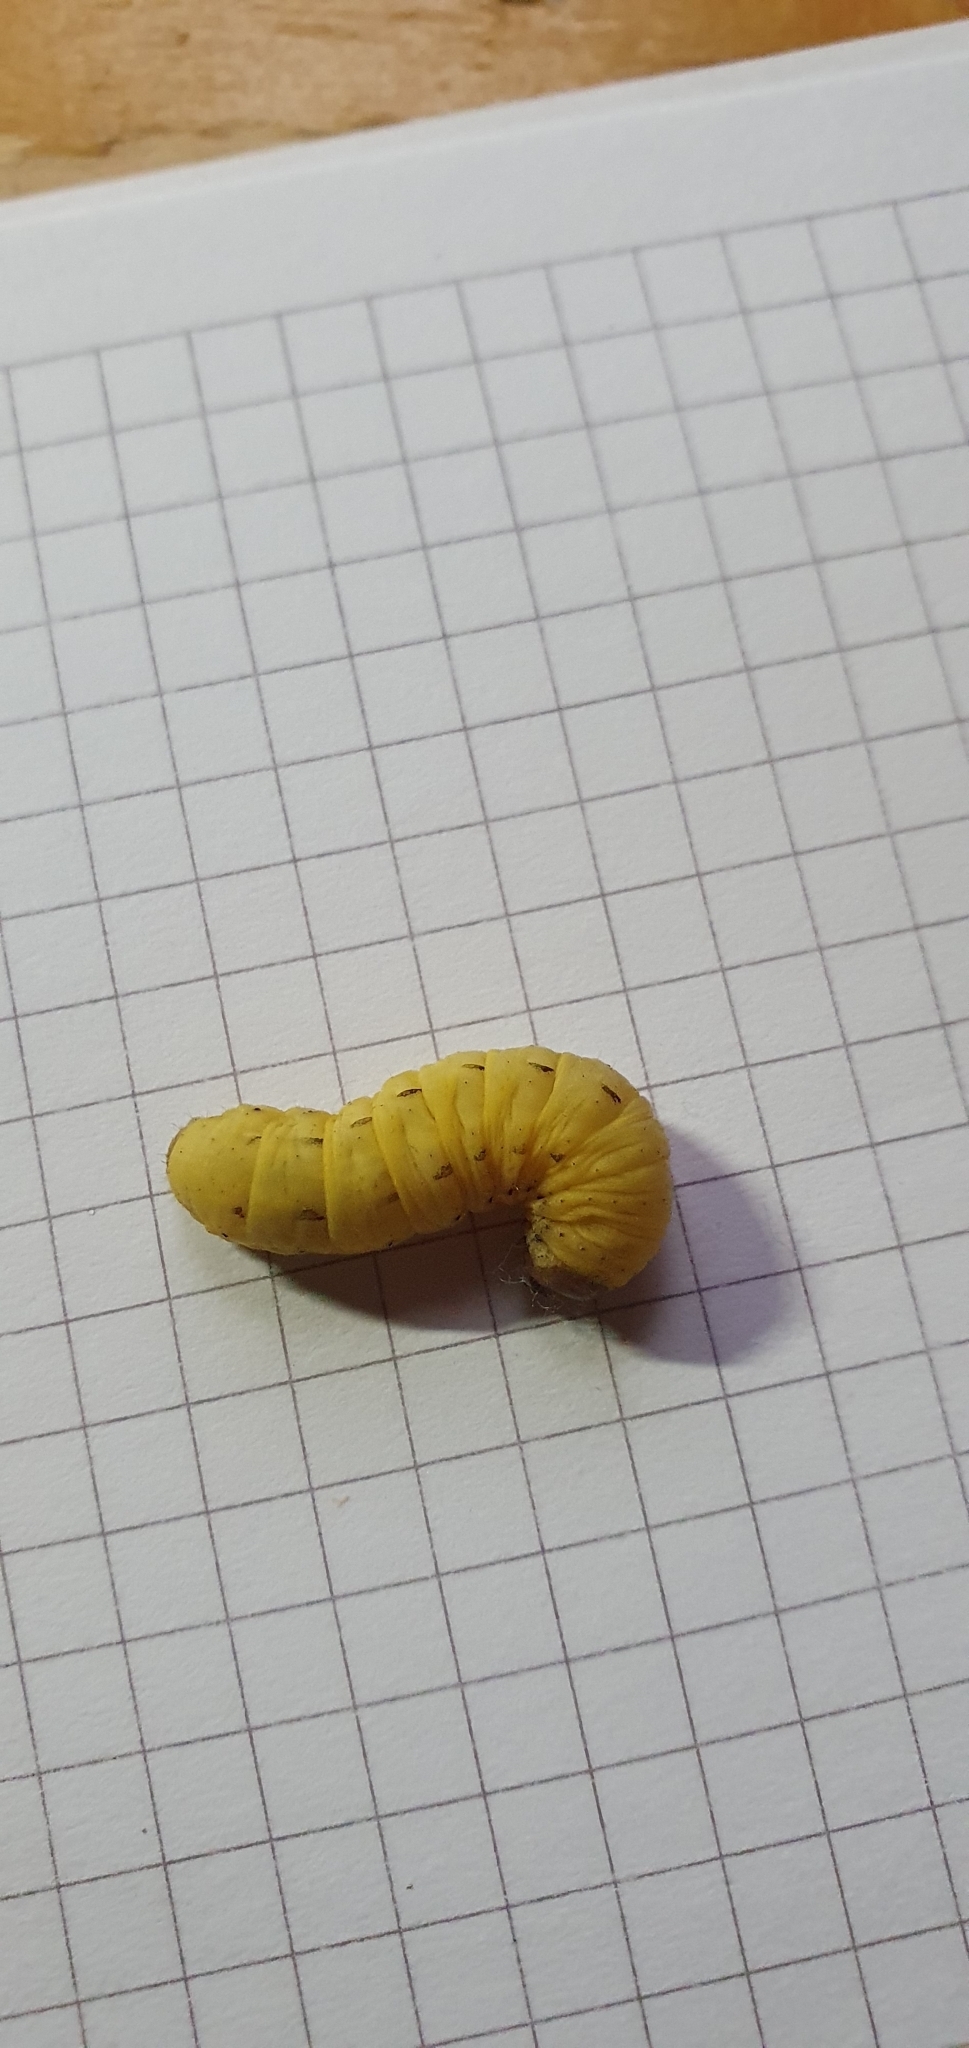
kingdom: Animalia
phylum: Arthropoda
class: Insecta
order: Lepidoptera
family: Noctuidae
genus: Noctua
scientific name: Noctua pronuba
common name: Large yellow underwing
